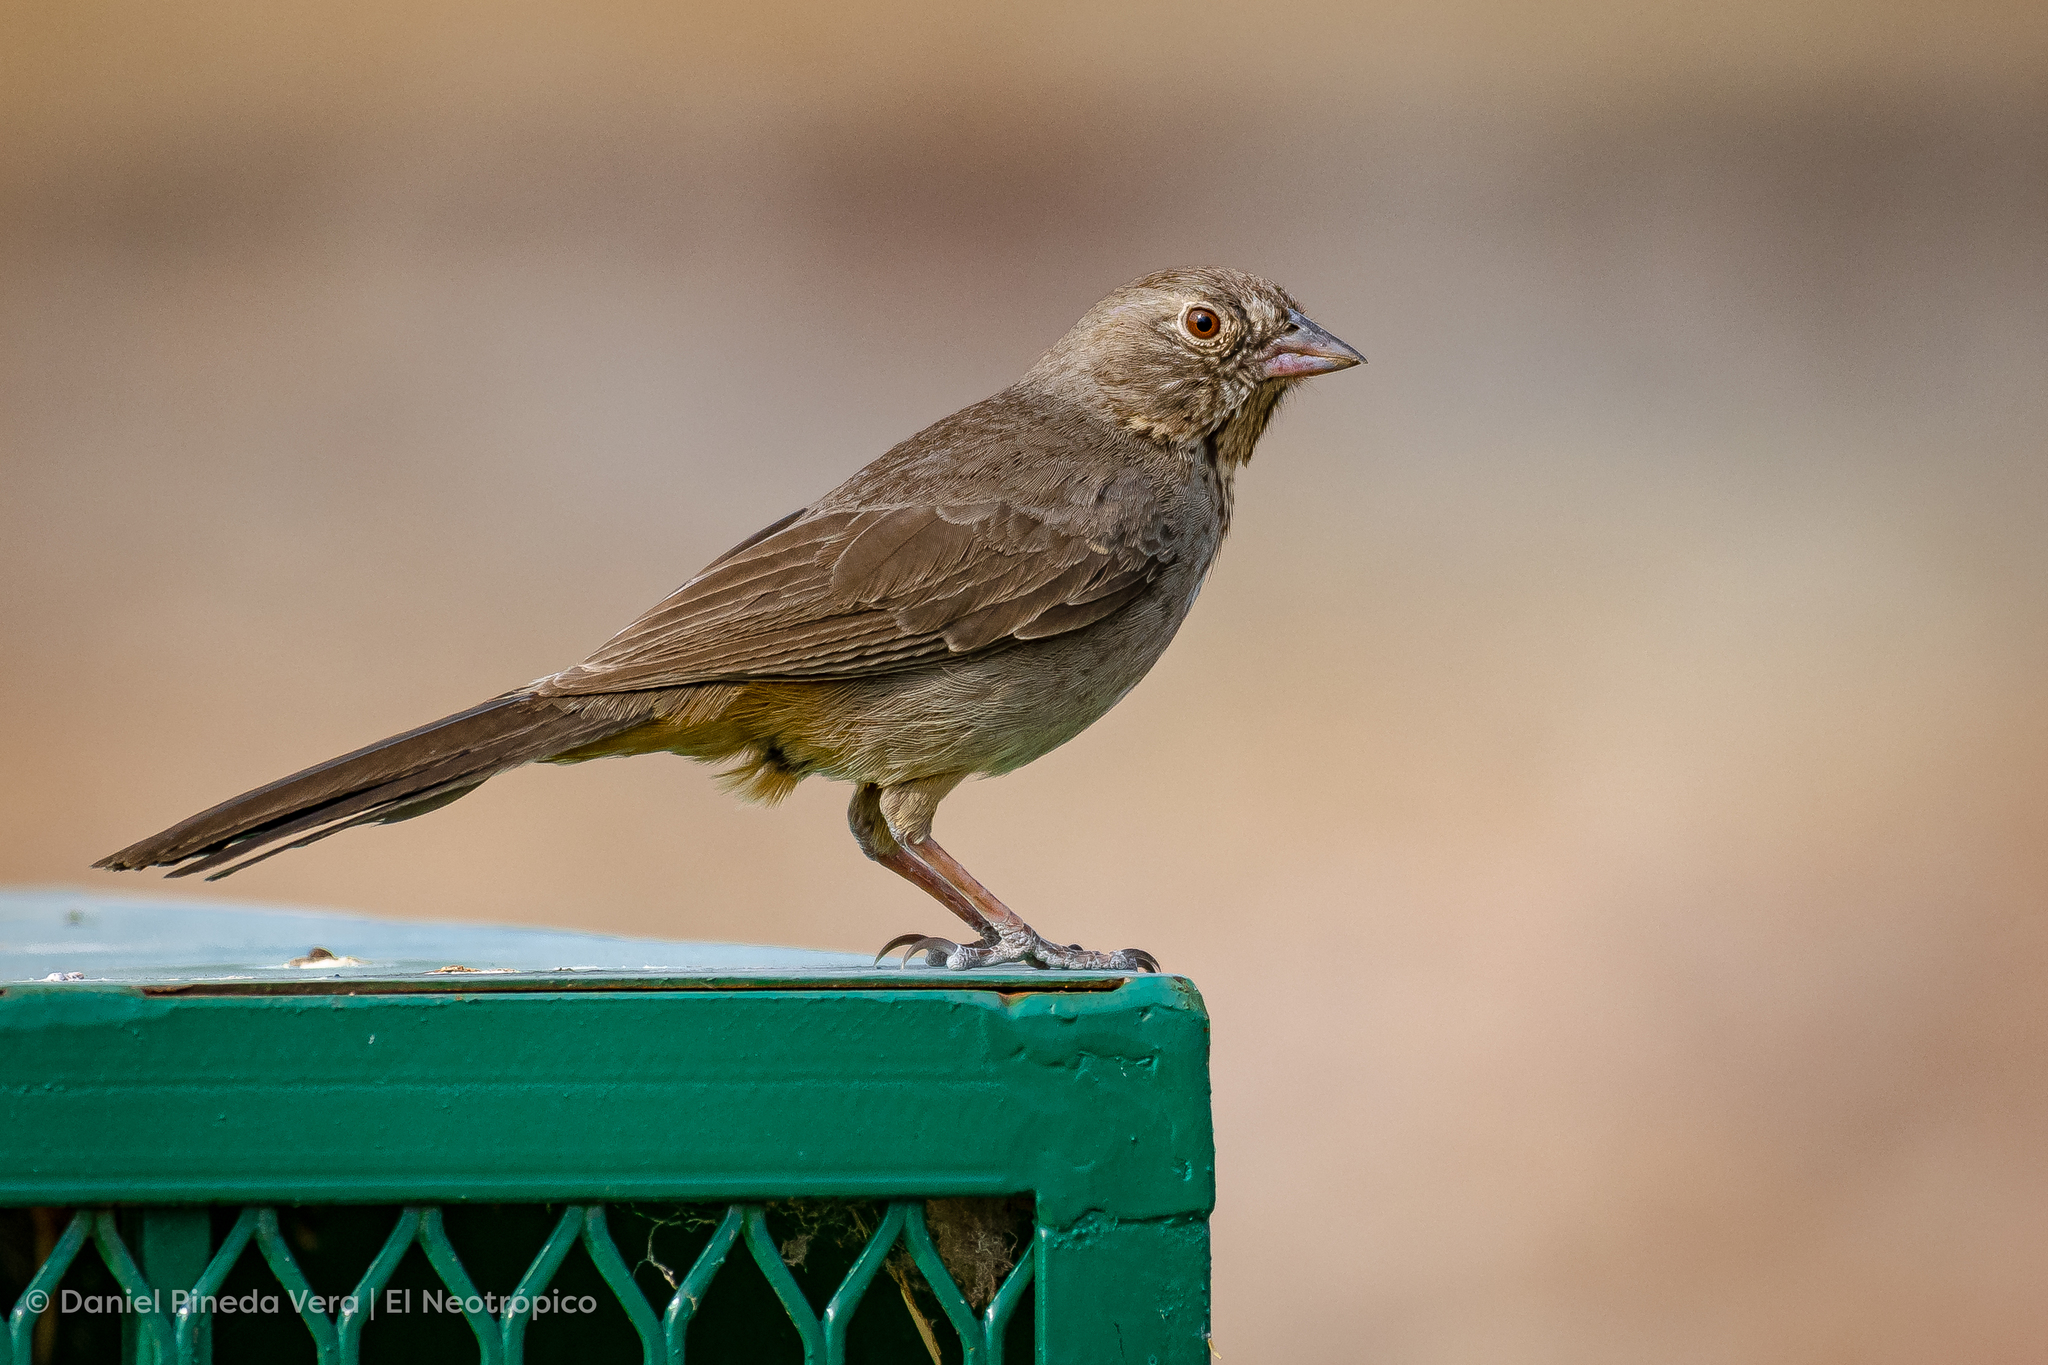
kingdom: Animalia
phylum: Chordata
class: Aves
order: Passeriformes
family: Passerellidae
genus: Melozone
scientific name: Melozone fusca
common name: Canyon towhee
